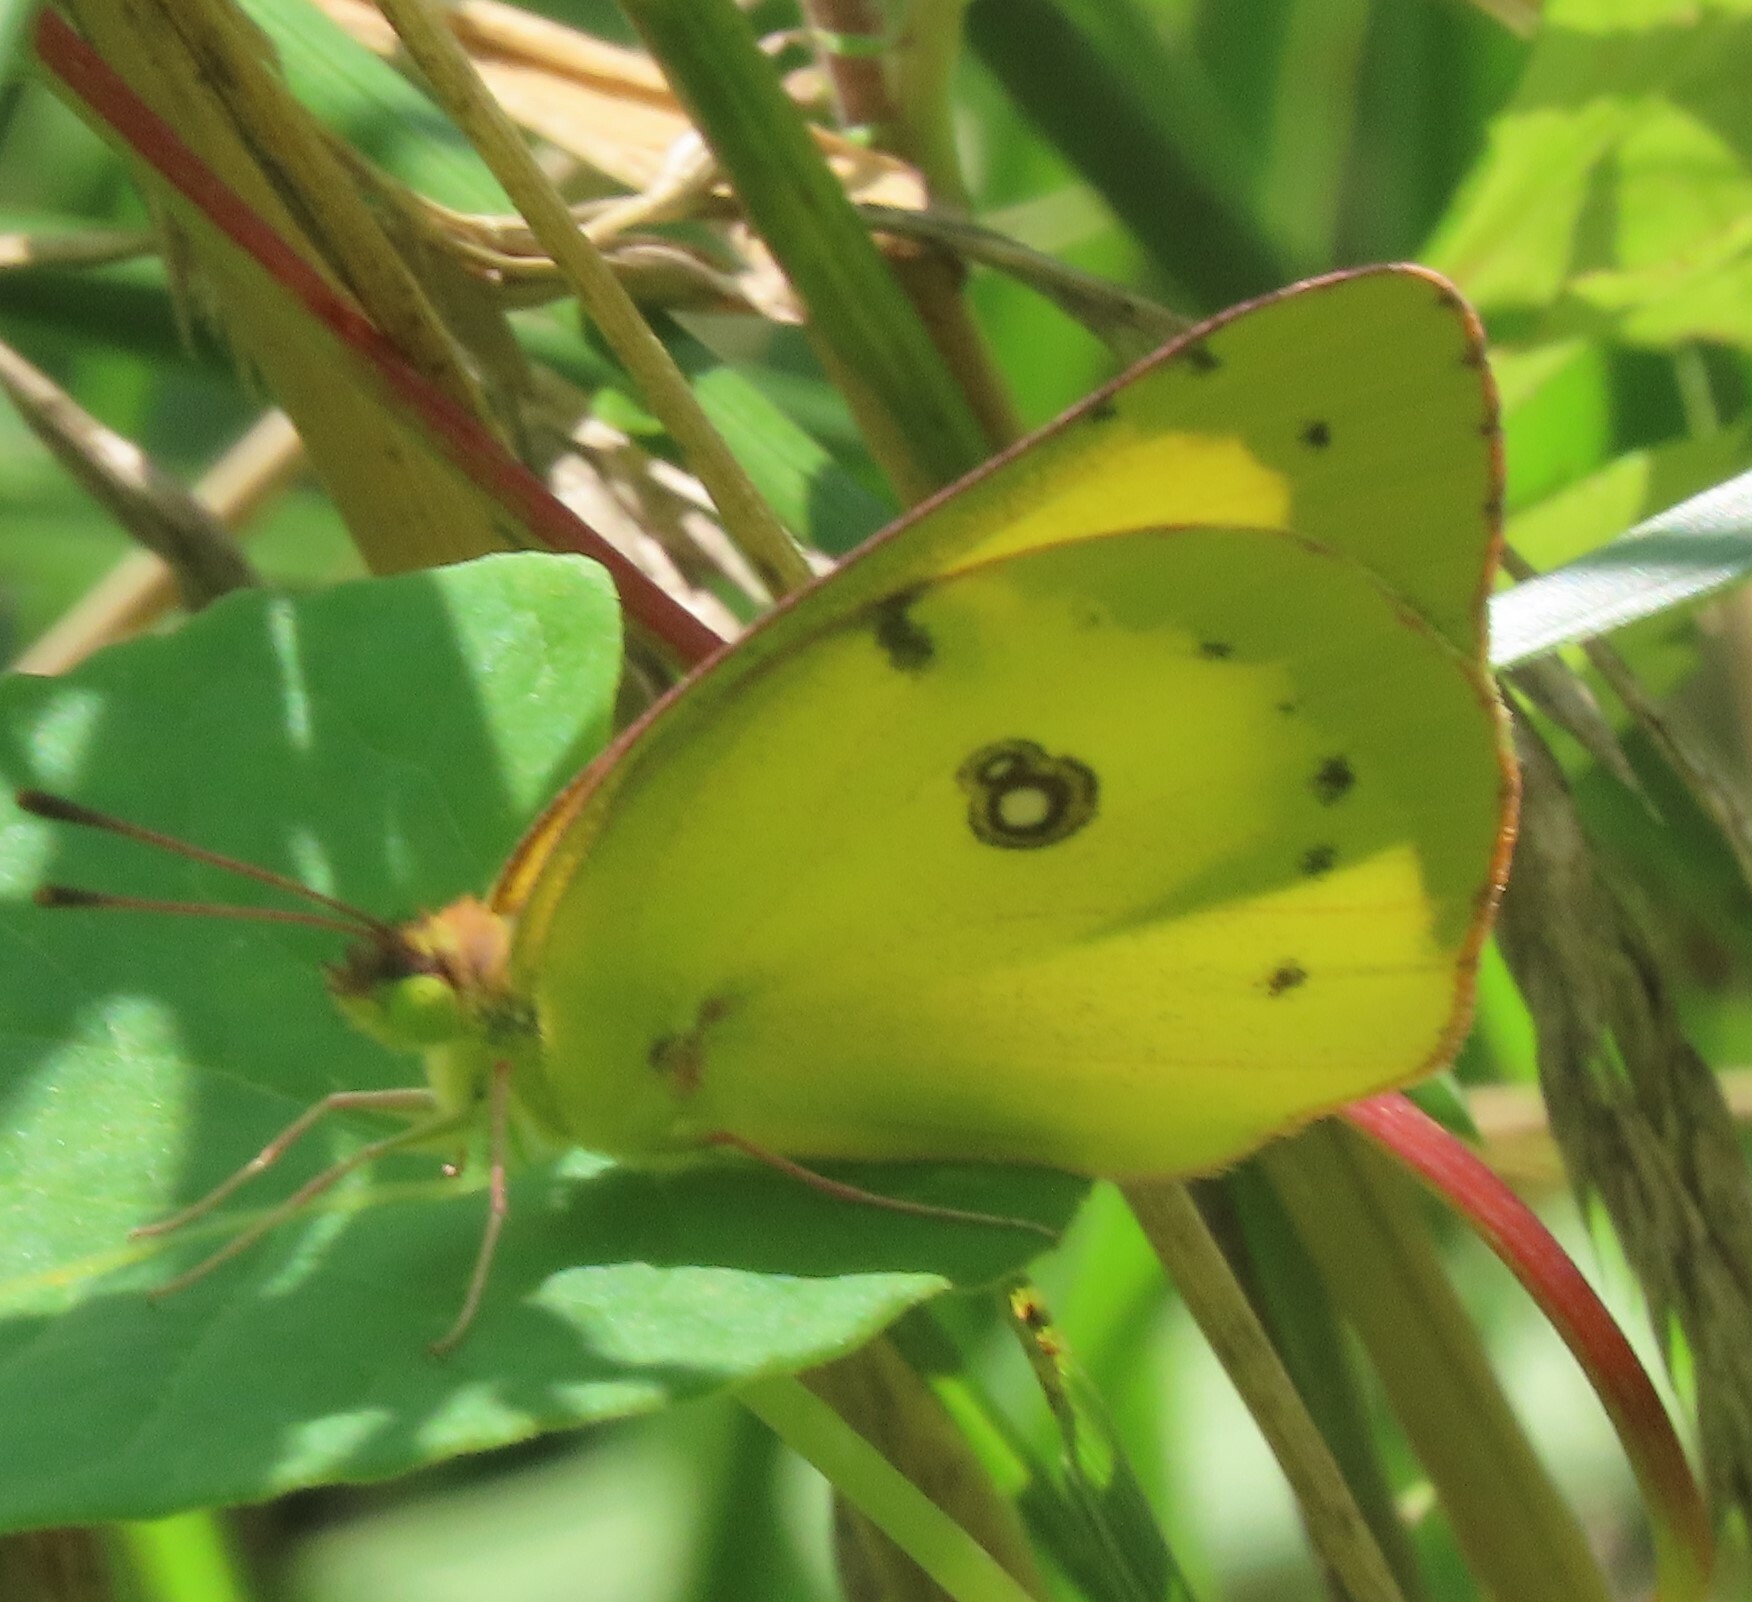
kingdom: Animalia
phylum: Arthropoda
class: Insecta
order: Lepidoptera
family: Pieridae
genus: Colias
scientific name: Colias philodice
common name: Clouded sulphur
